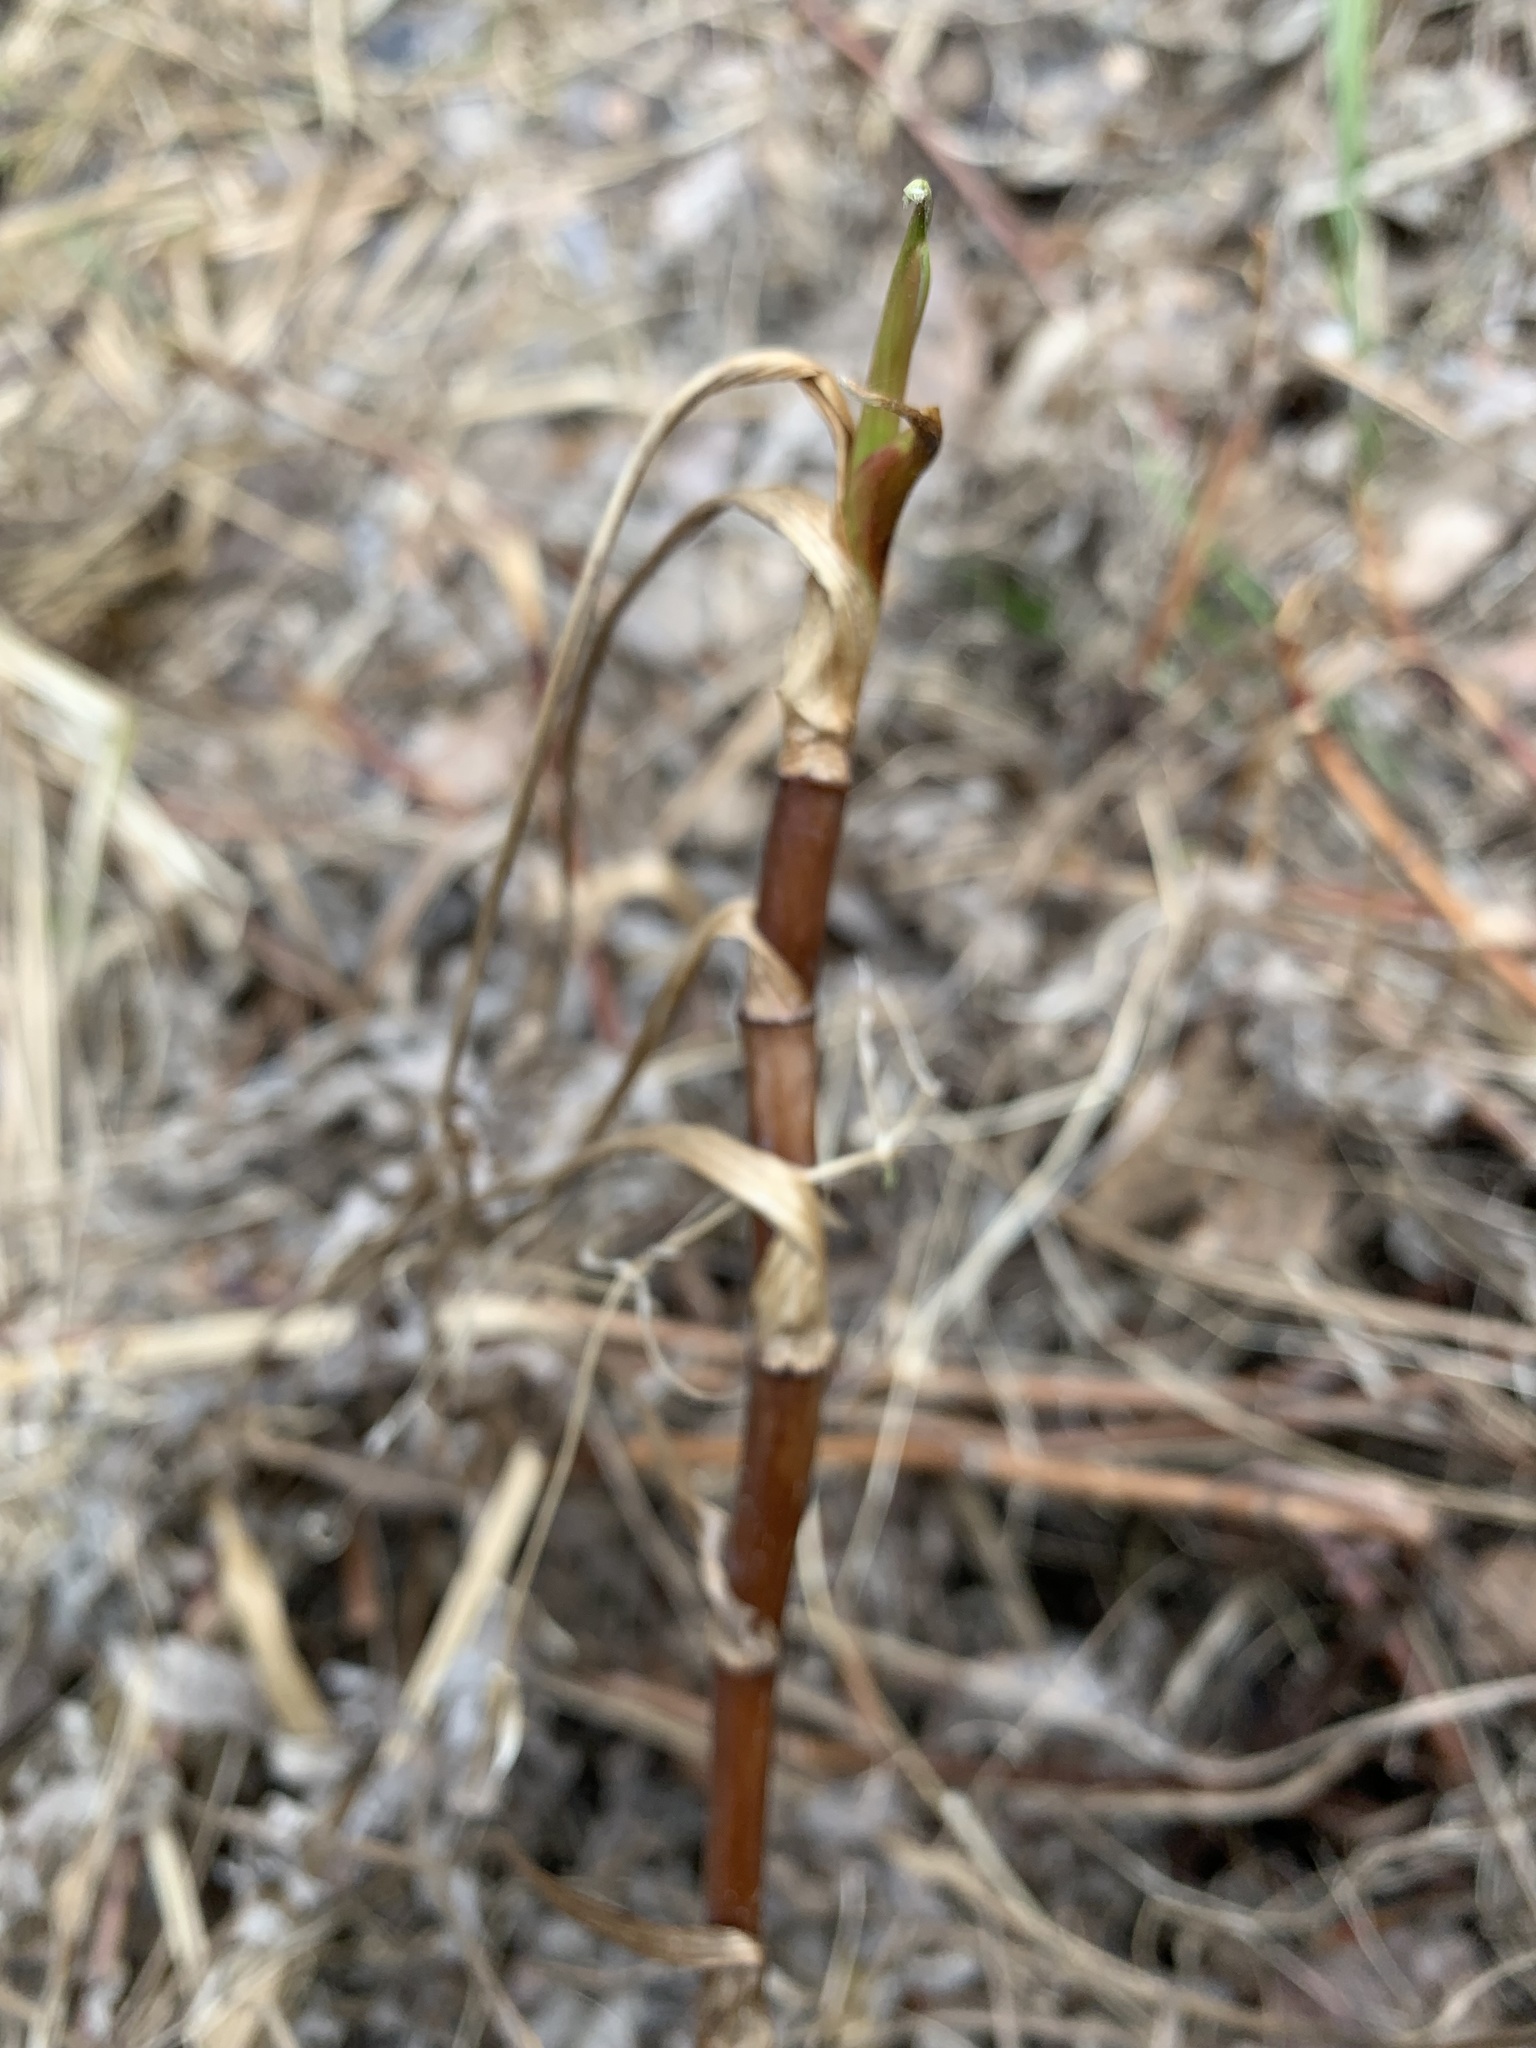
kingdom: Plantae
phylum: Tracheophyta
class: Magnoliopsida
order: Rosales
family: Rosaceae
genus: Comarum
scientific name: Comarum palustre
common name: Marsh cinquefoil
